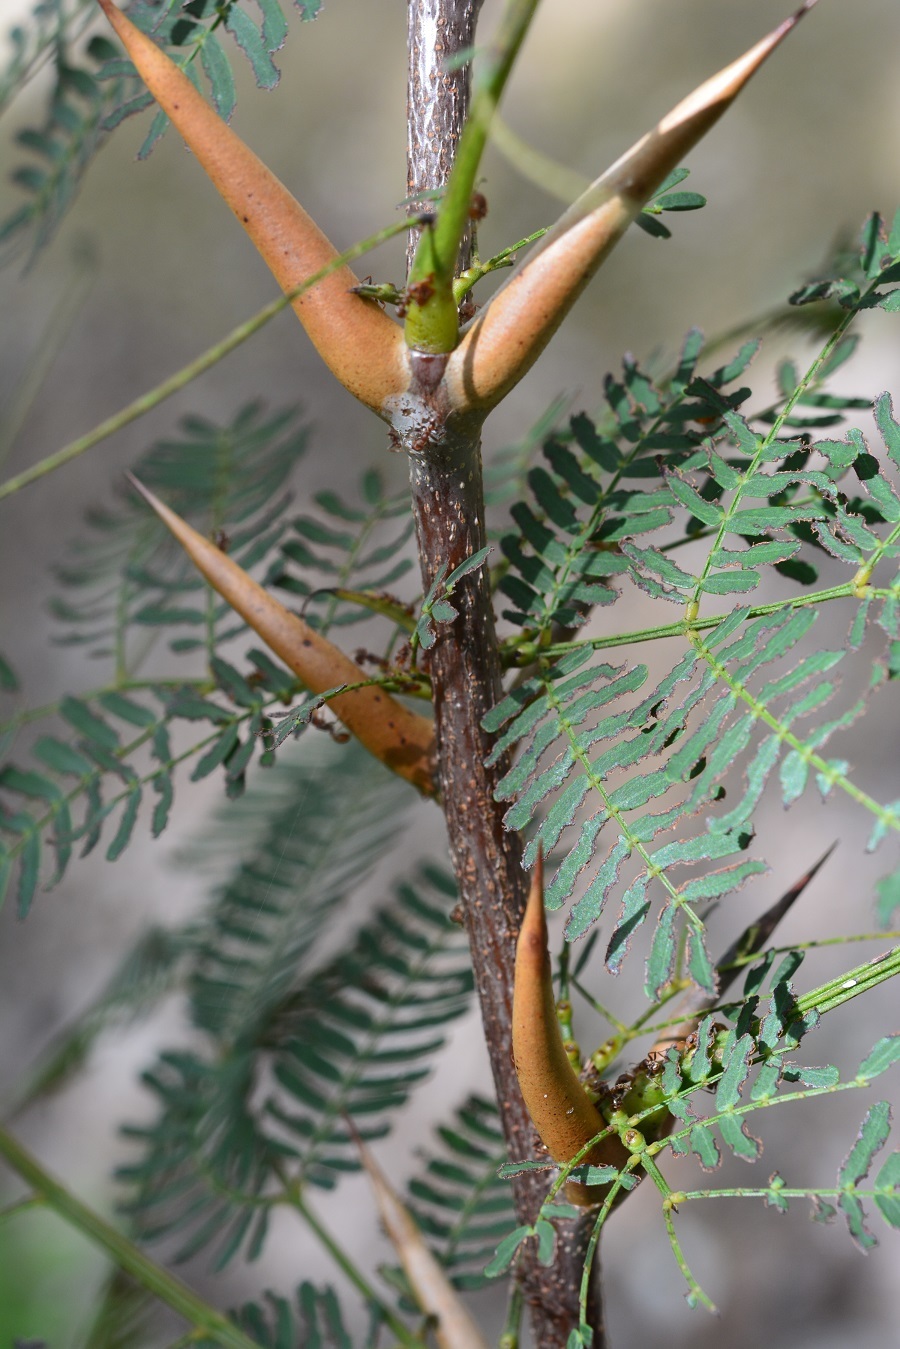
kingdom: Plantae
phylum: Tracheophyta
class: Magnoliopsida
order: Fabales
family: Fabaceae
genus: Vachellia
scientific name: Vachellia cornigera
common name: Bullhorn wattle
